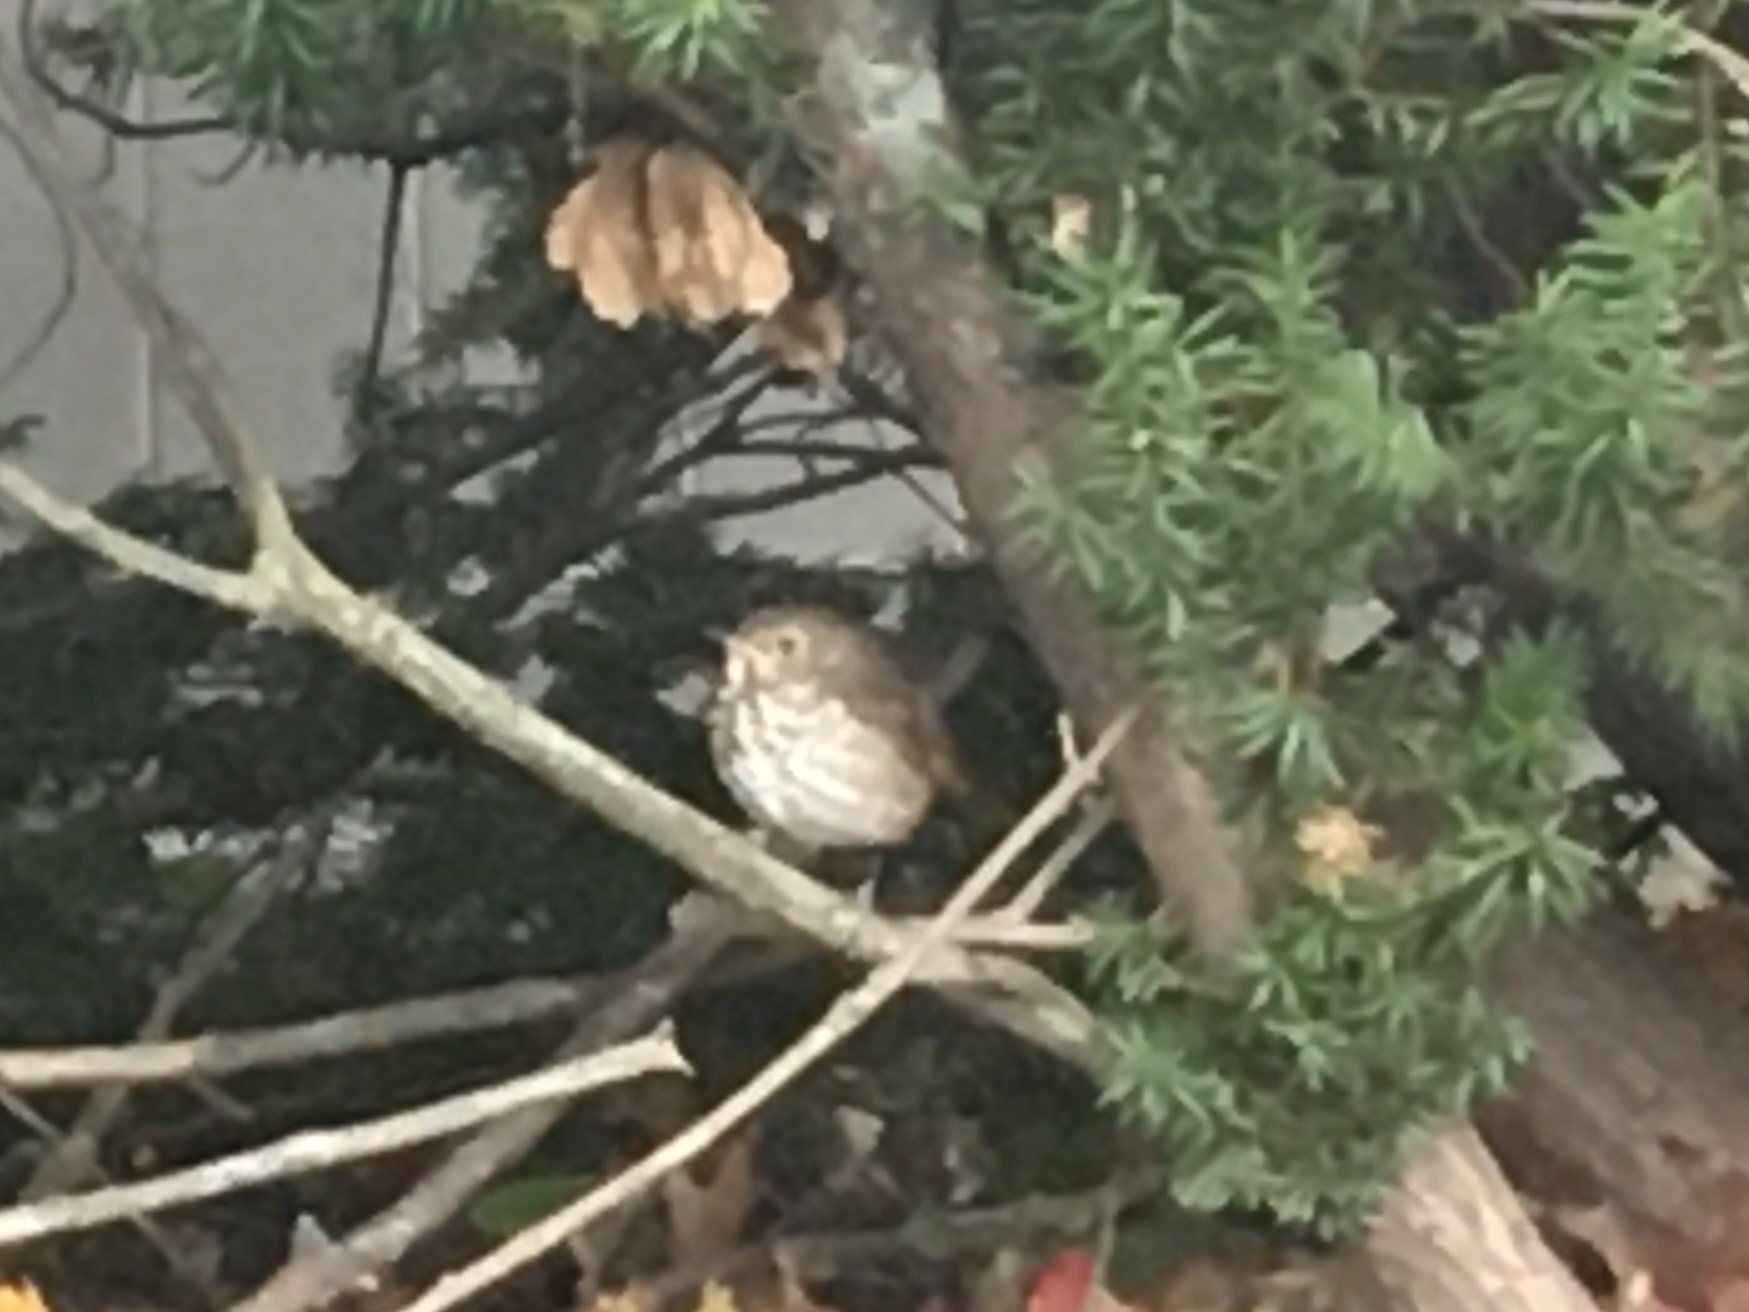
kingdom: Animalia
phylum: Chordata
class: Aves
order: Passeriformes
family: Turdidae
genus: Catharus
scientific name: Catharus guttatus
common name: Hermit thrush
